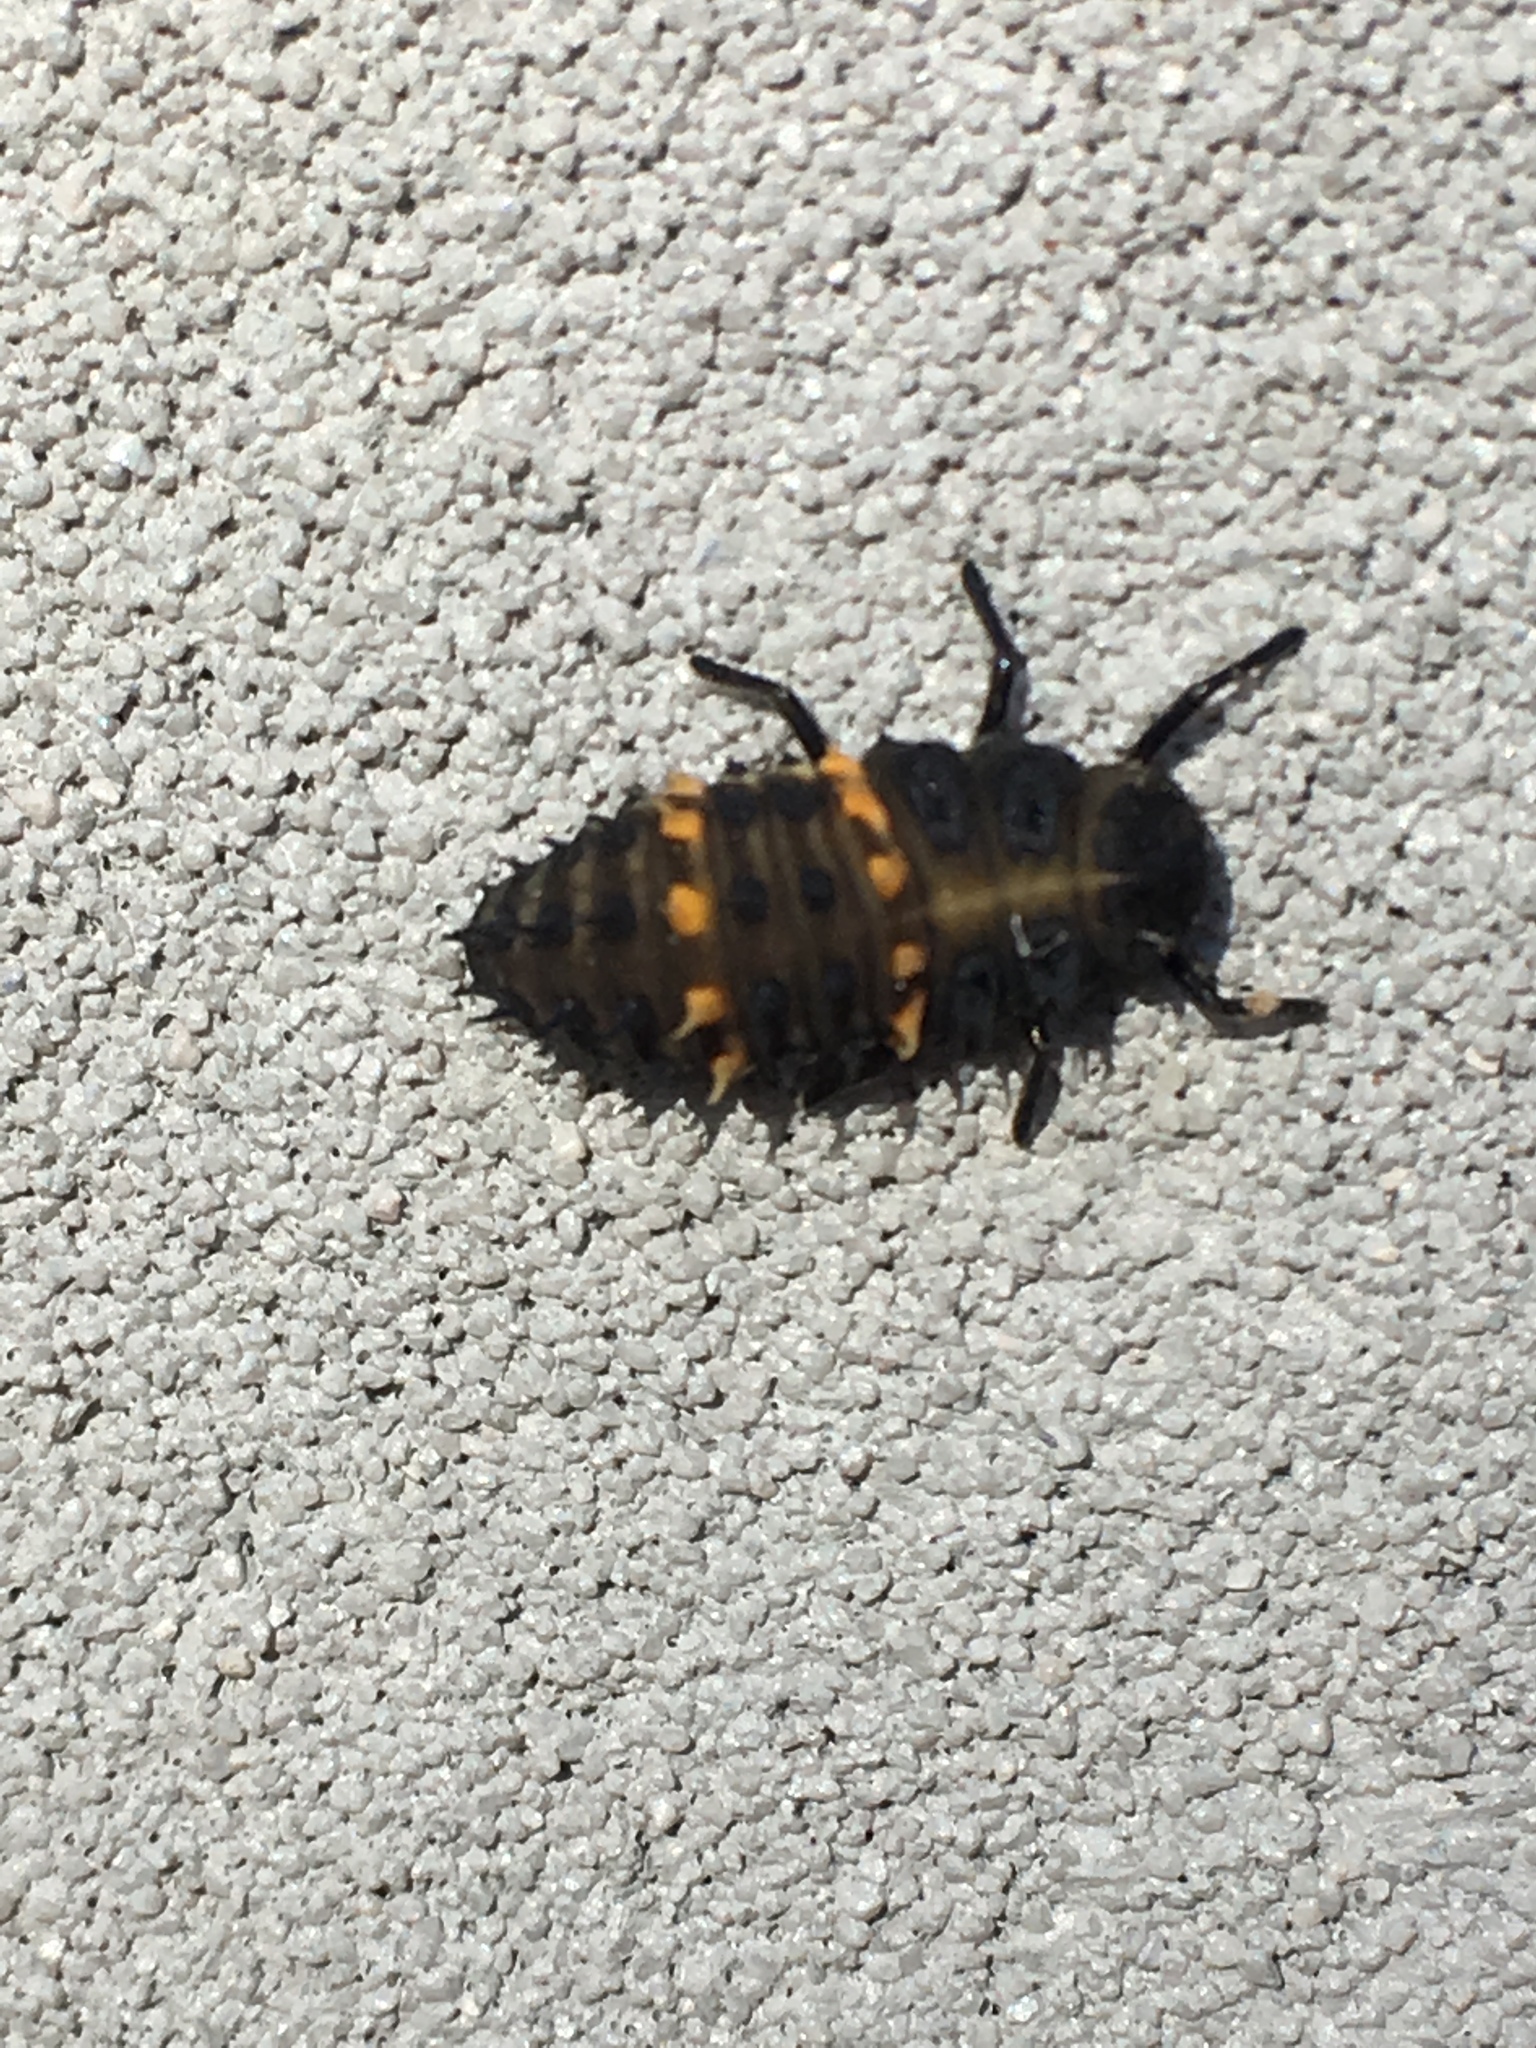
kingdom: Animalia
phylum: Arthropoda
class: Insecta
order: Coleoptera
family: Coccinellidae
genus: Harmonia
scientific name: Harmonia conformis
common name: Common spotted ladybird beetle
